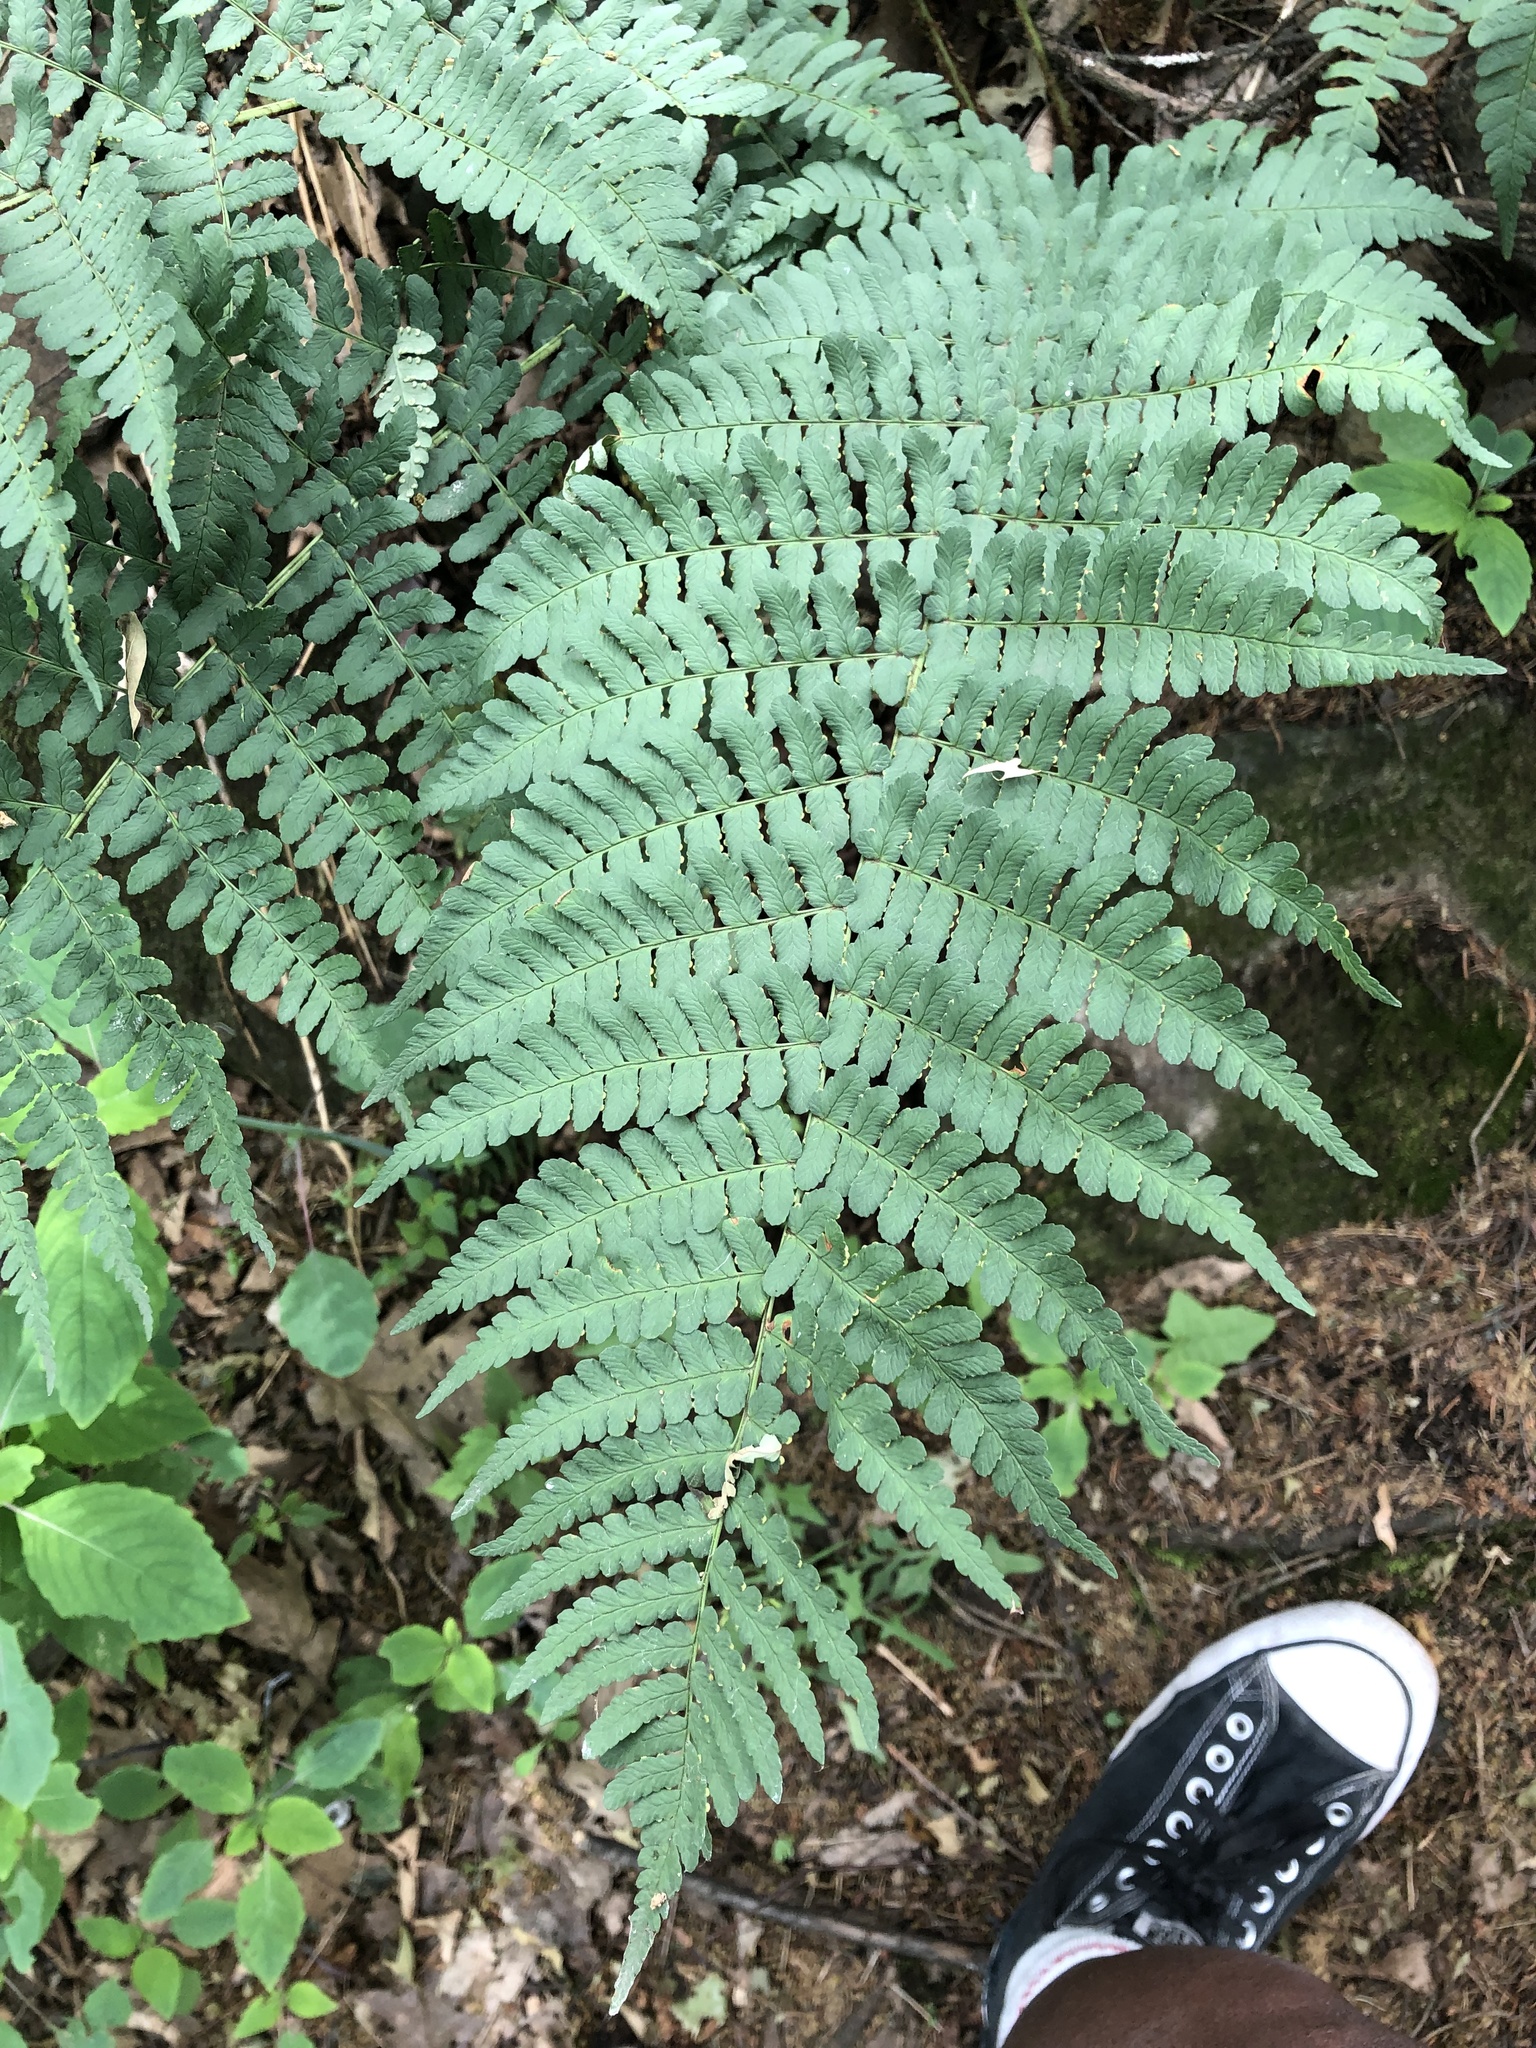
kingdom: Plantae
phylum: Tracheophyta
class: Polypodiopsida
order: Polypodiales
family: Dryopteridaceae
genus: Dryopteris
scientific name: Dryopteris marginalis
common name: Marginal wood fern
